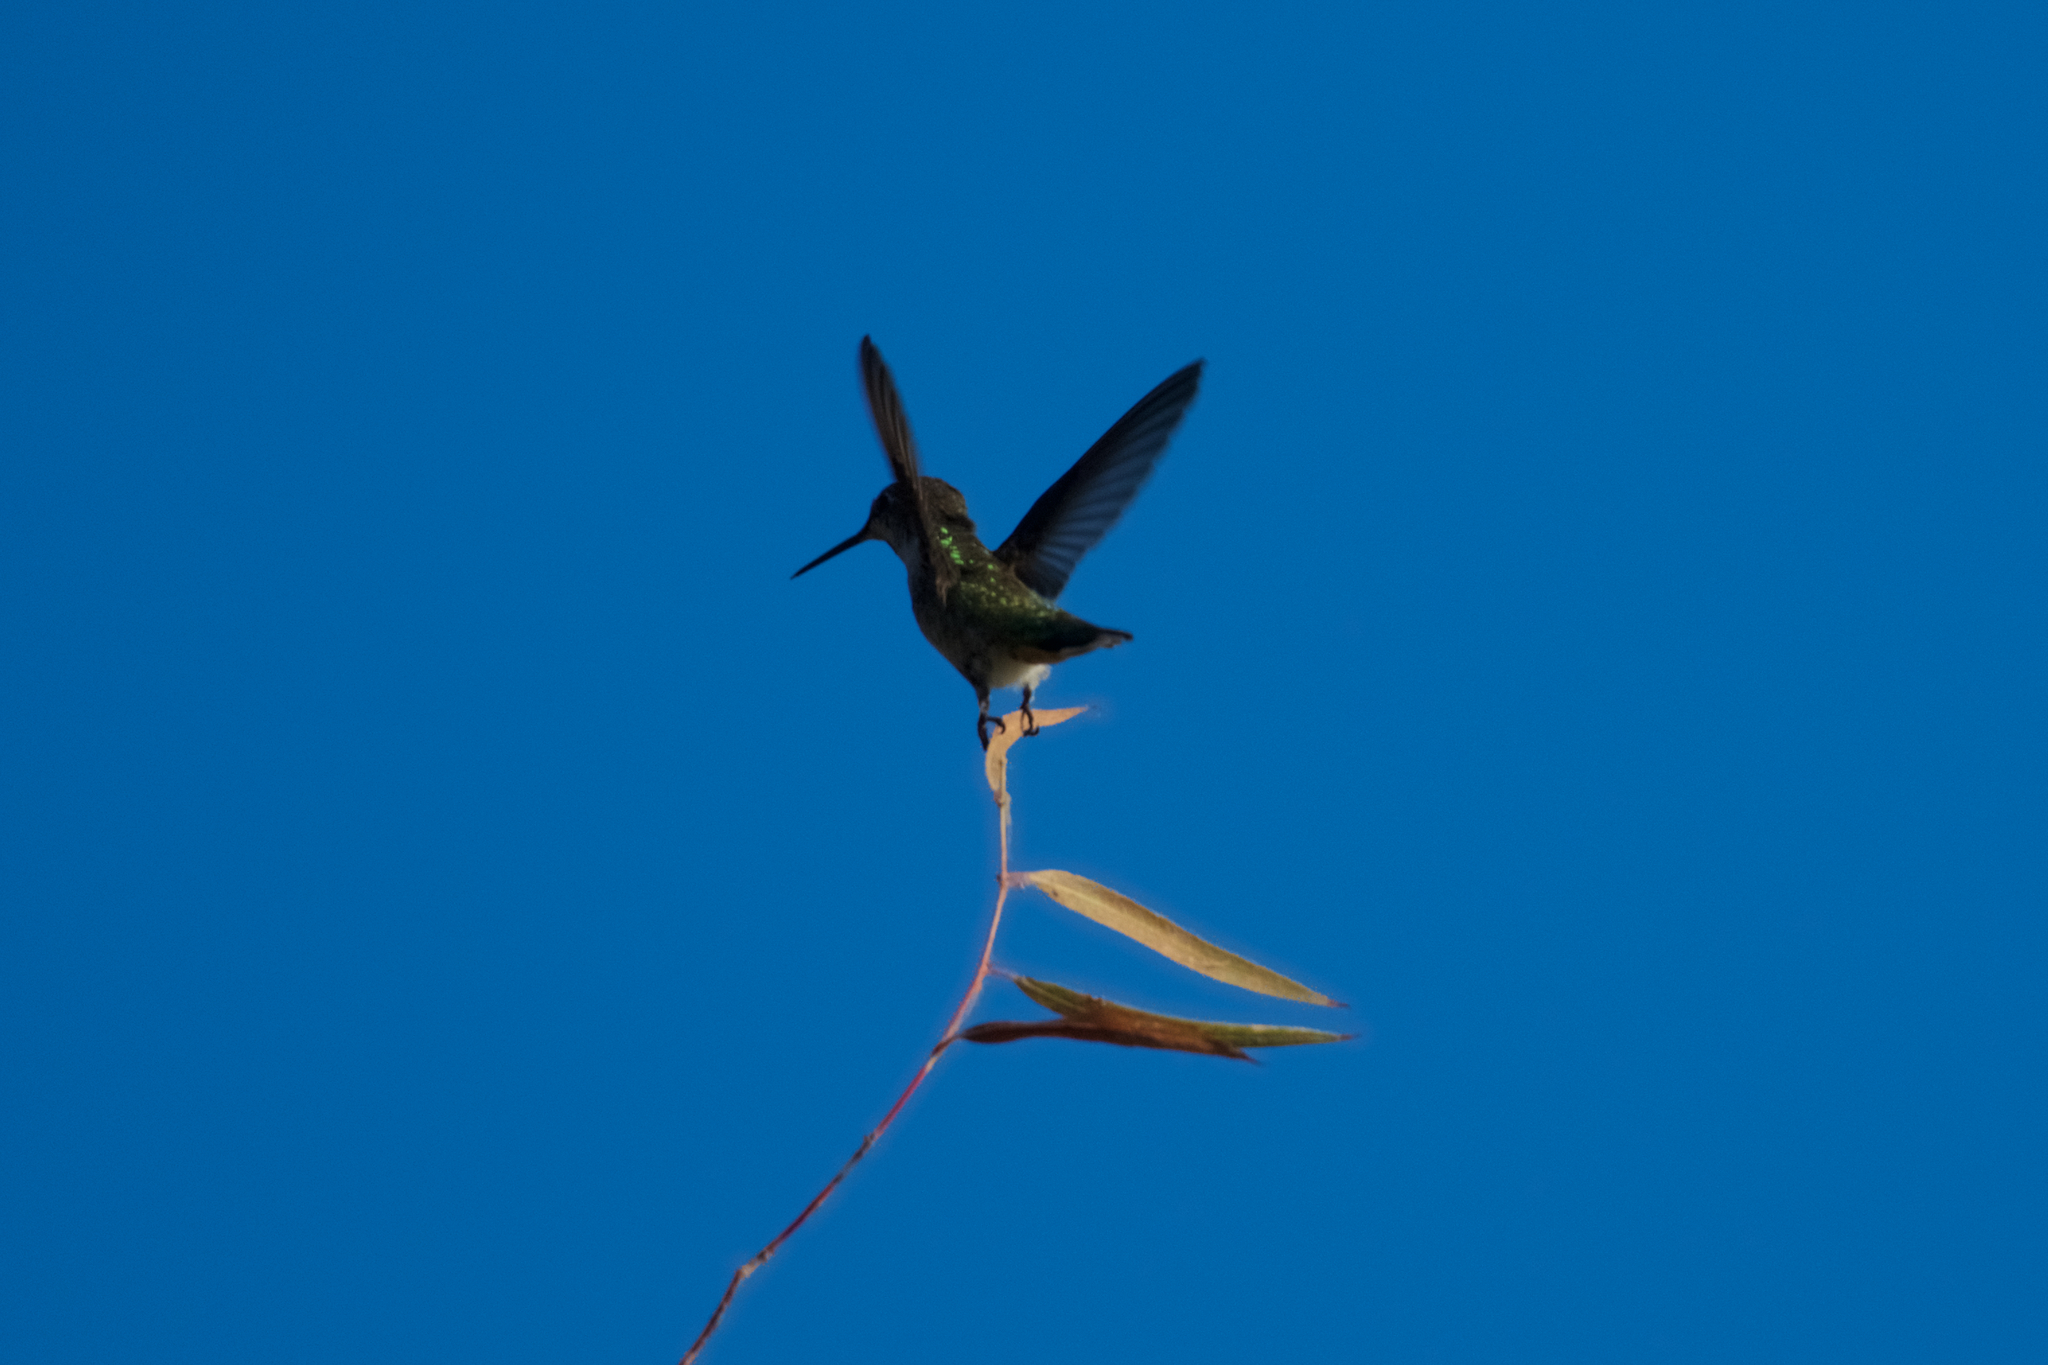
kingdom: Animalia
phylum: Chordata
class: Aves
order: Apodiformes
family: Trochilidae
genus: Calypte
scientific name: Calypte anna
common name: Anna's hummingbird
